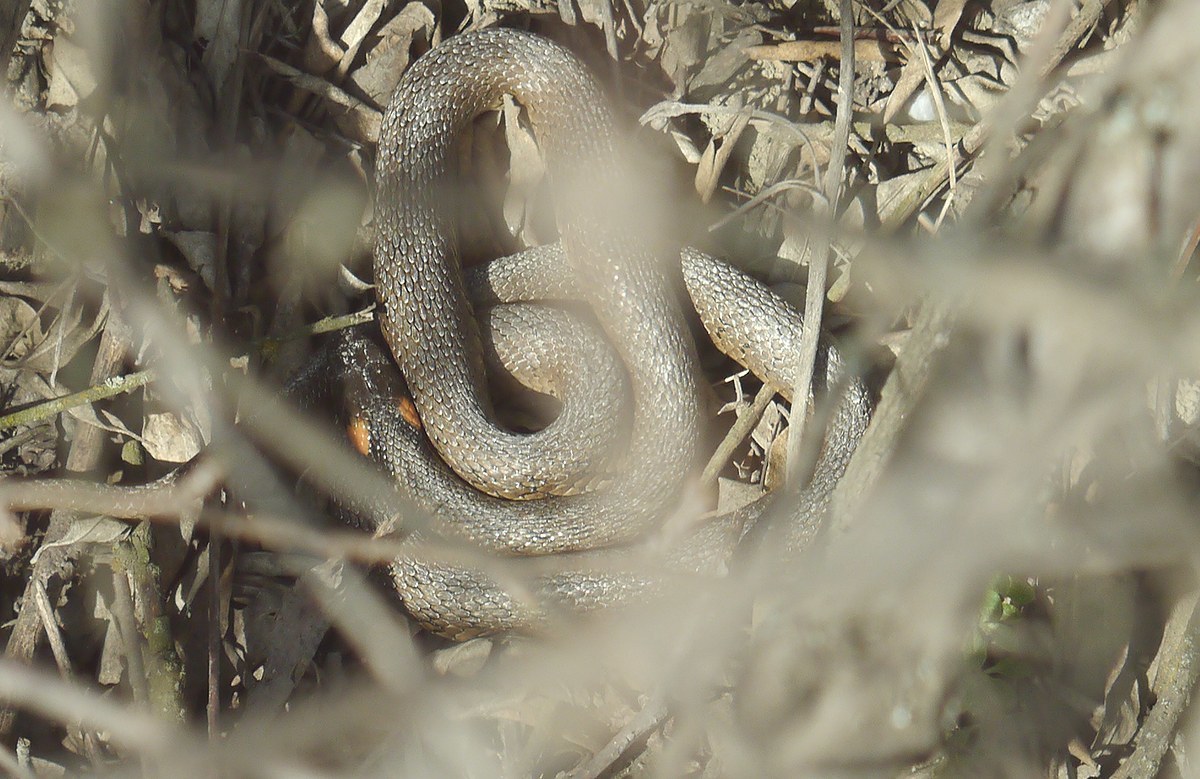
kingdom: Animalia
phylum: Chordata
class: Squamata
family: Colubridae
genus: Natrix
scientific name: Natrix natrix
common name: Grass snake
